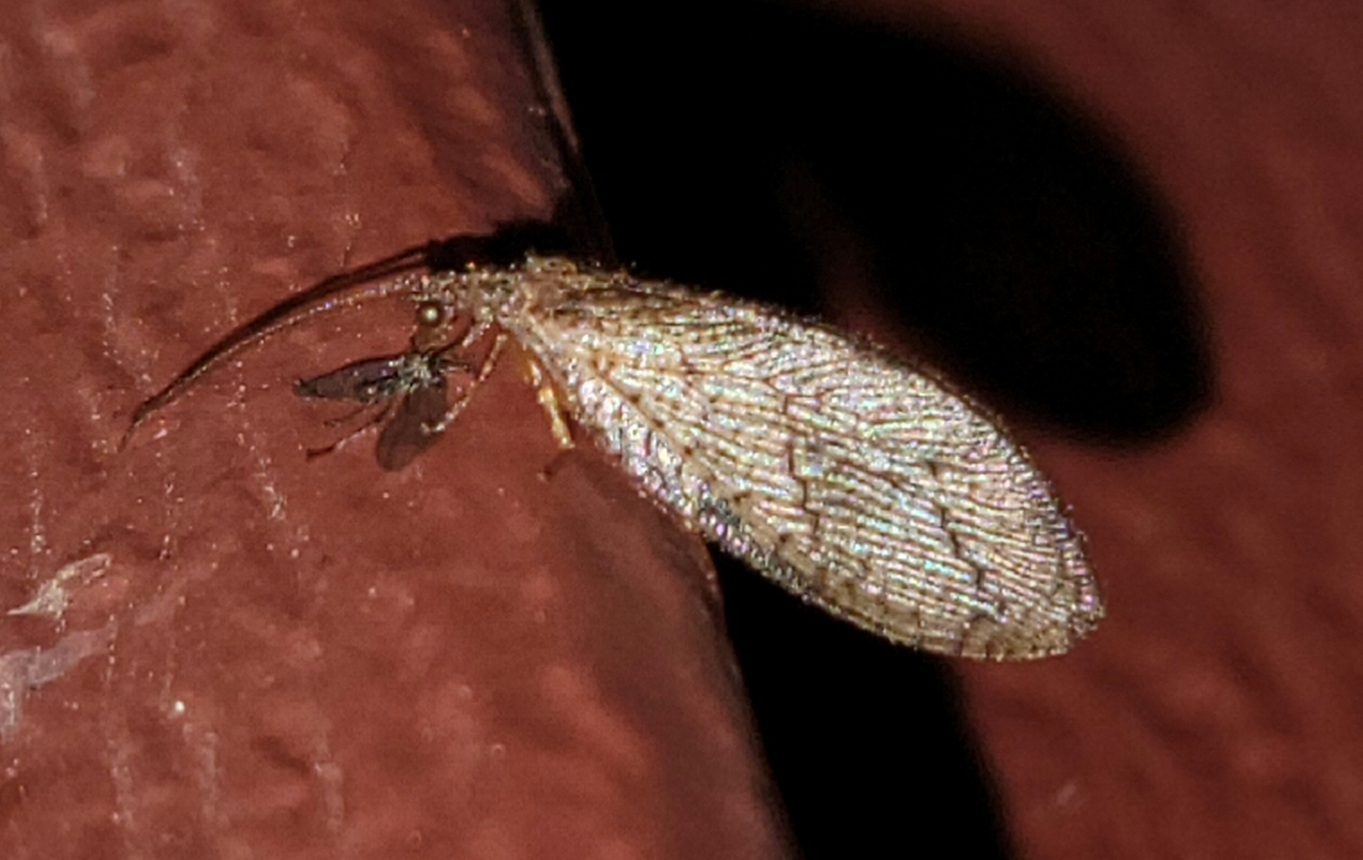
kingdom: Animalia
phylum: Arthropoda
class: Insecta
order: Neuroptera
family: Hemerobiidae
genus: Micromus
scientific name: Micromus posticus
